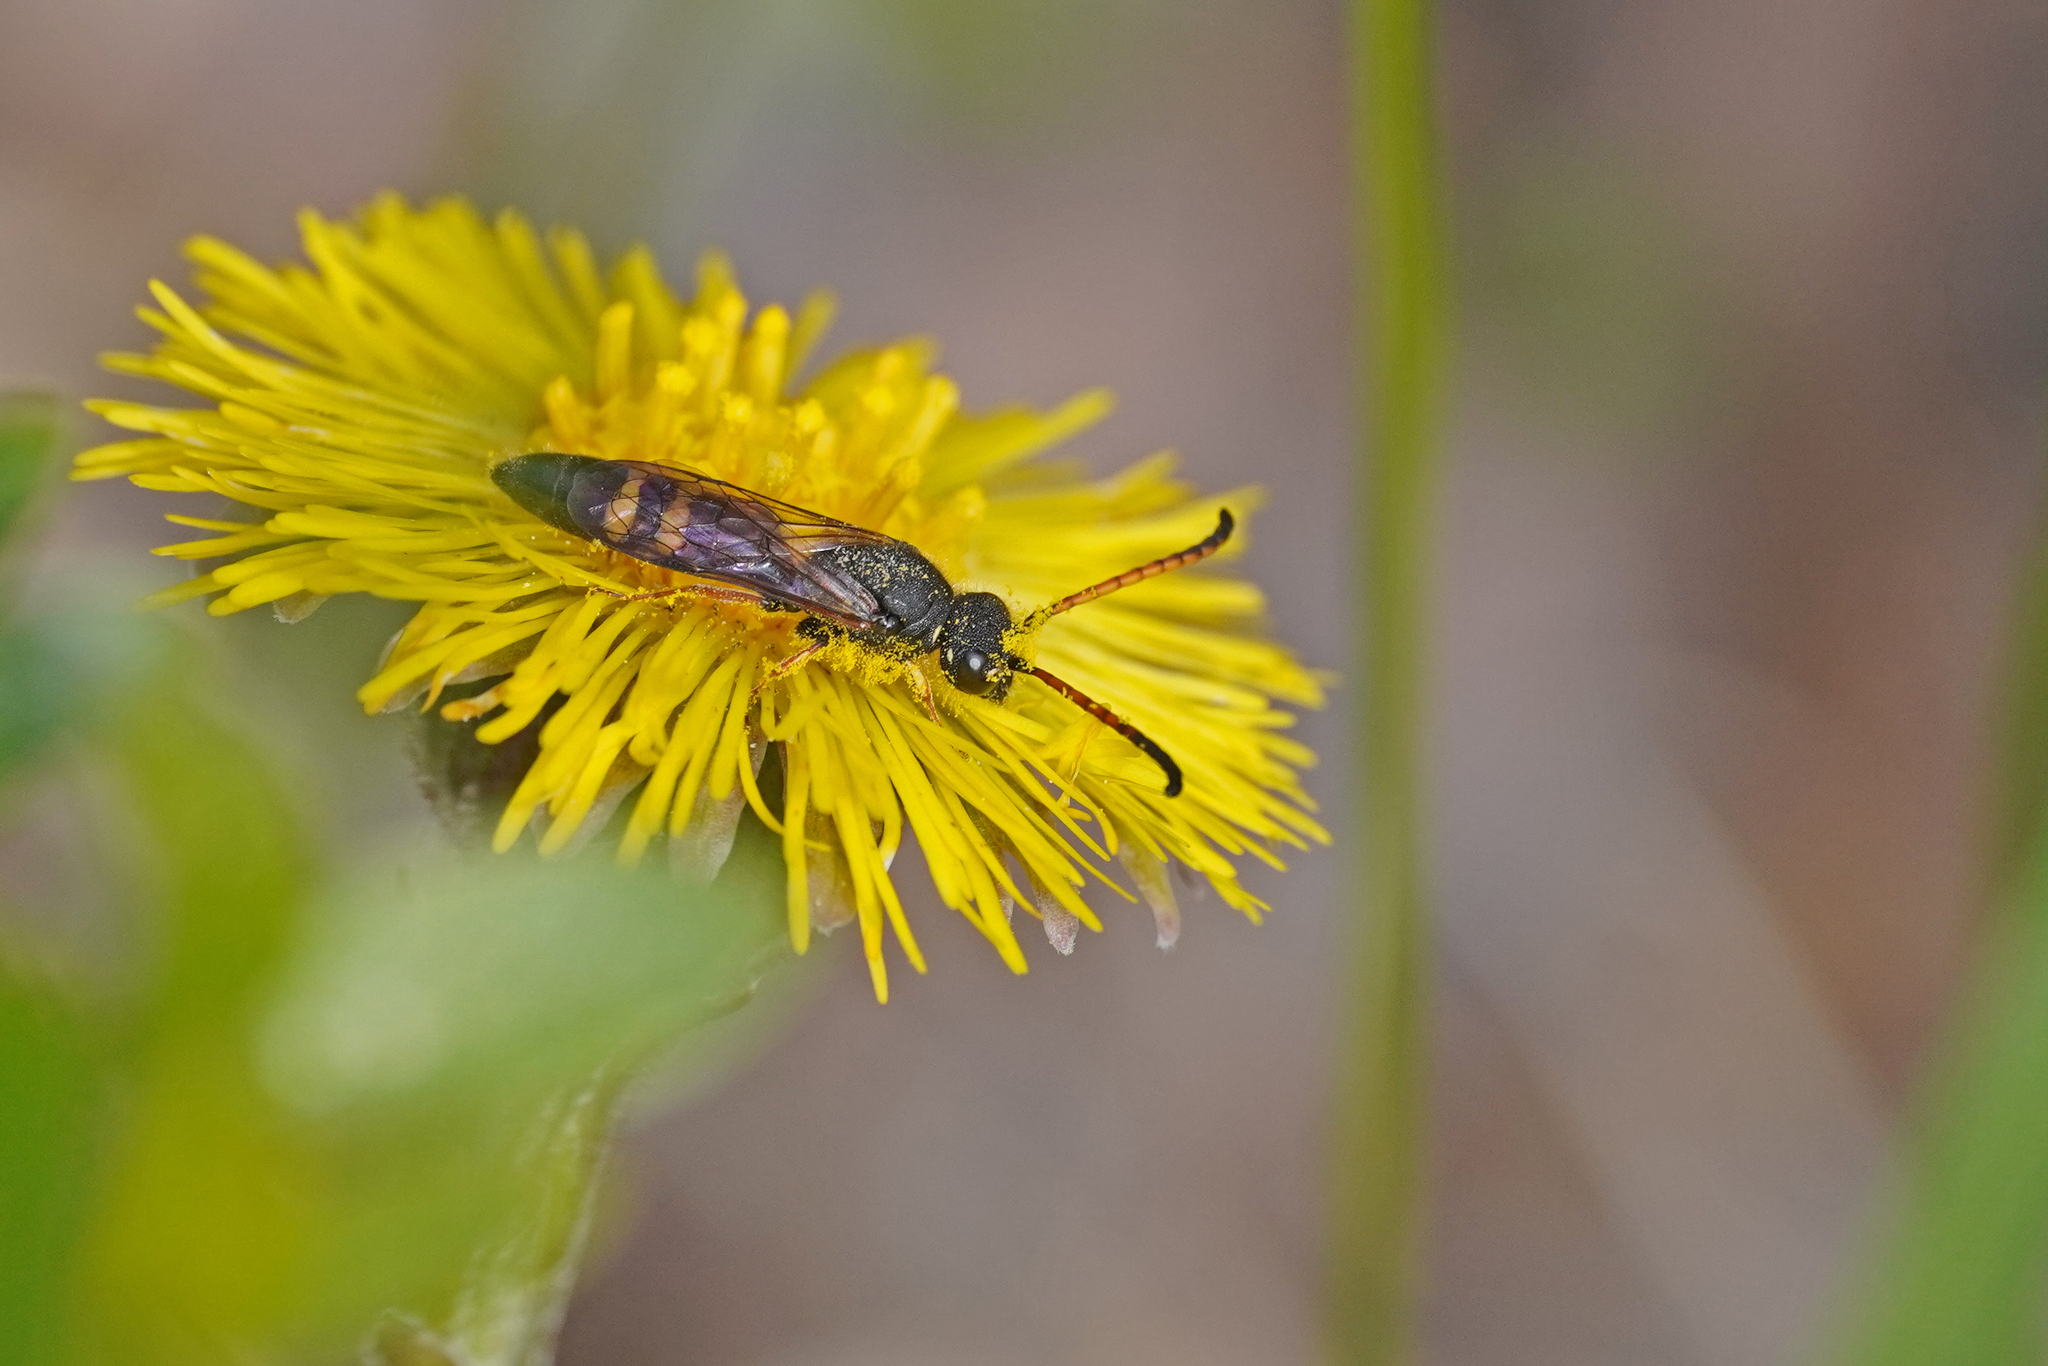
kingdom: Animalia
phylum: Arthropoda
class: Insecta
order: Hymenoptera
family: Sapygidae
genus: Sapyga
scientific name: Sapyga similis
